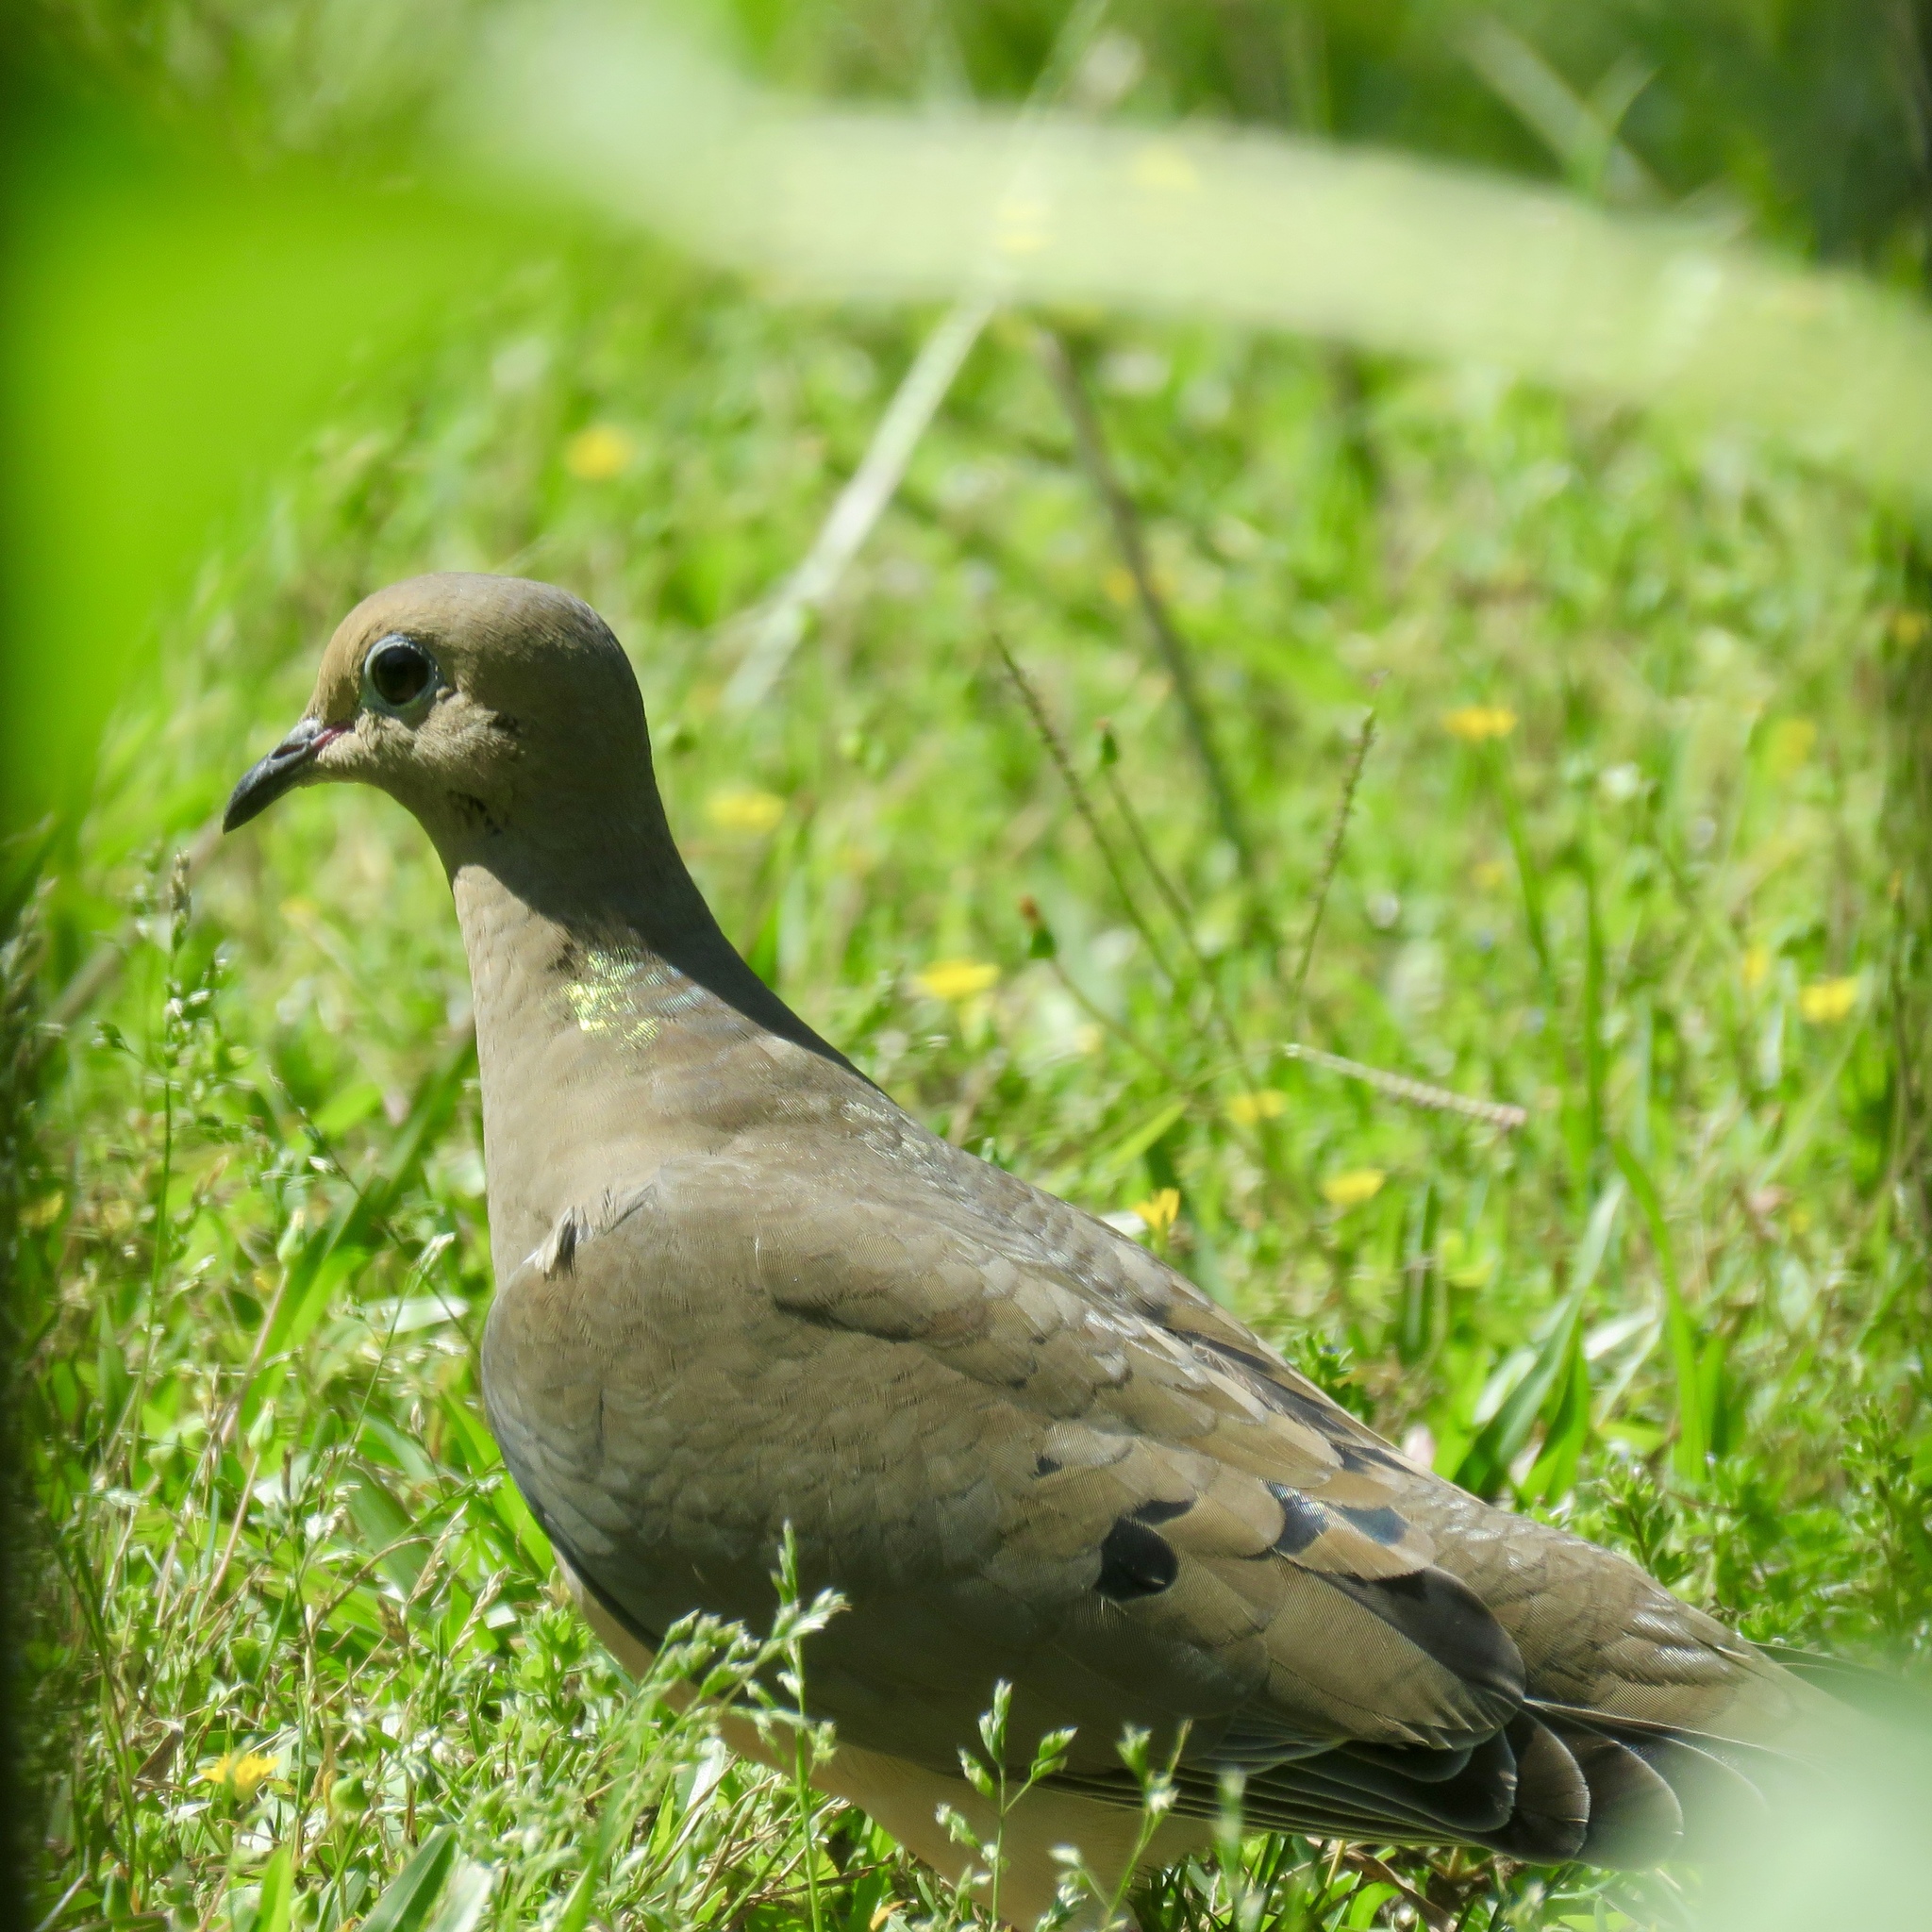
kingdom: Animalia
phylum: Chordata
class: Aves
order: Columbiformes
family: Columbidae
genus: Zenaida
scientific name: Zenaida macroura
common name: Mourning dove
